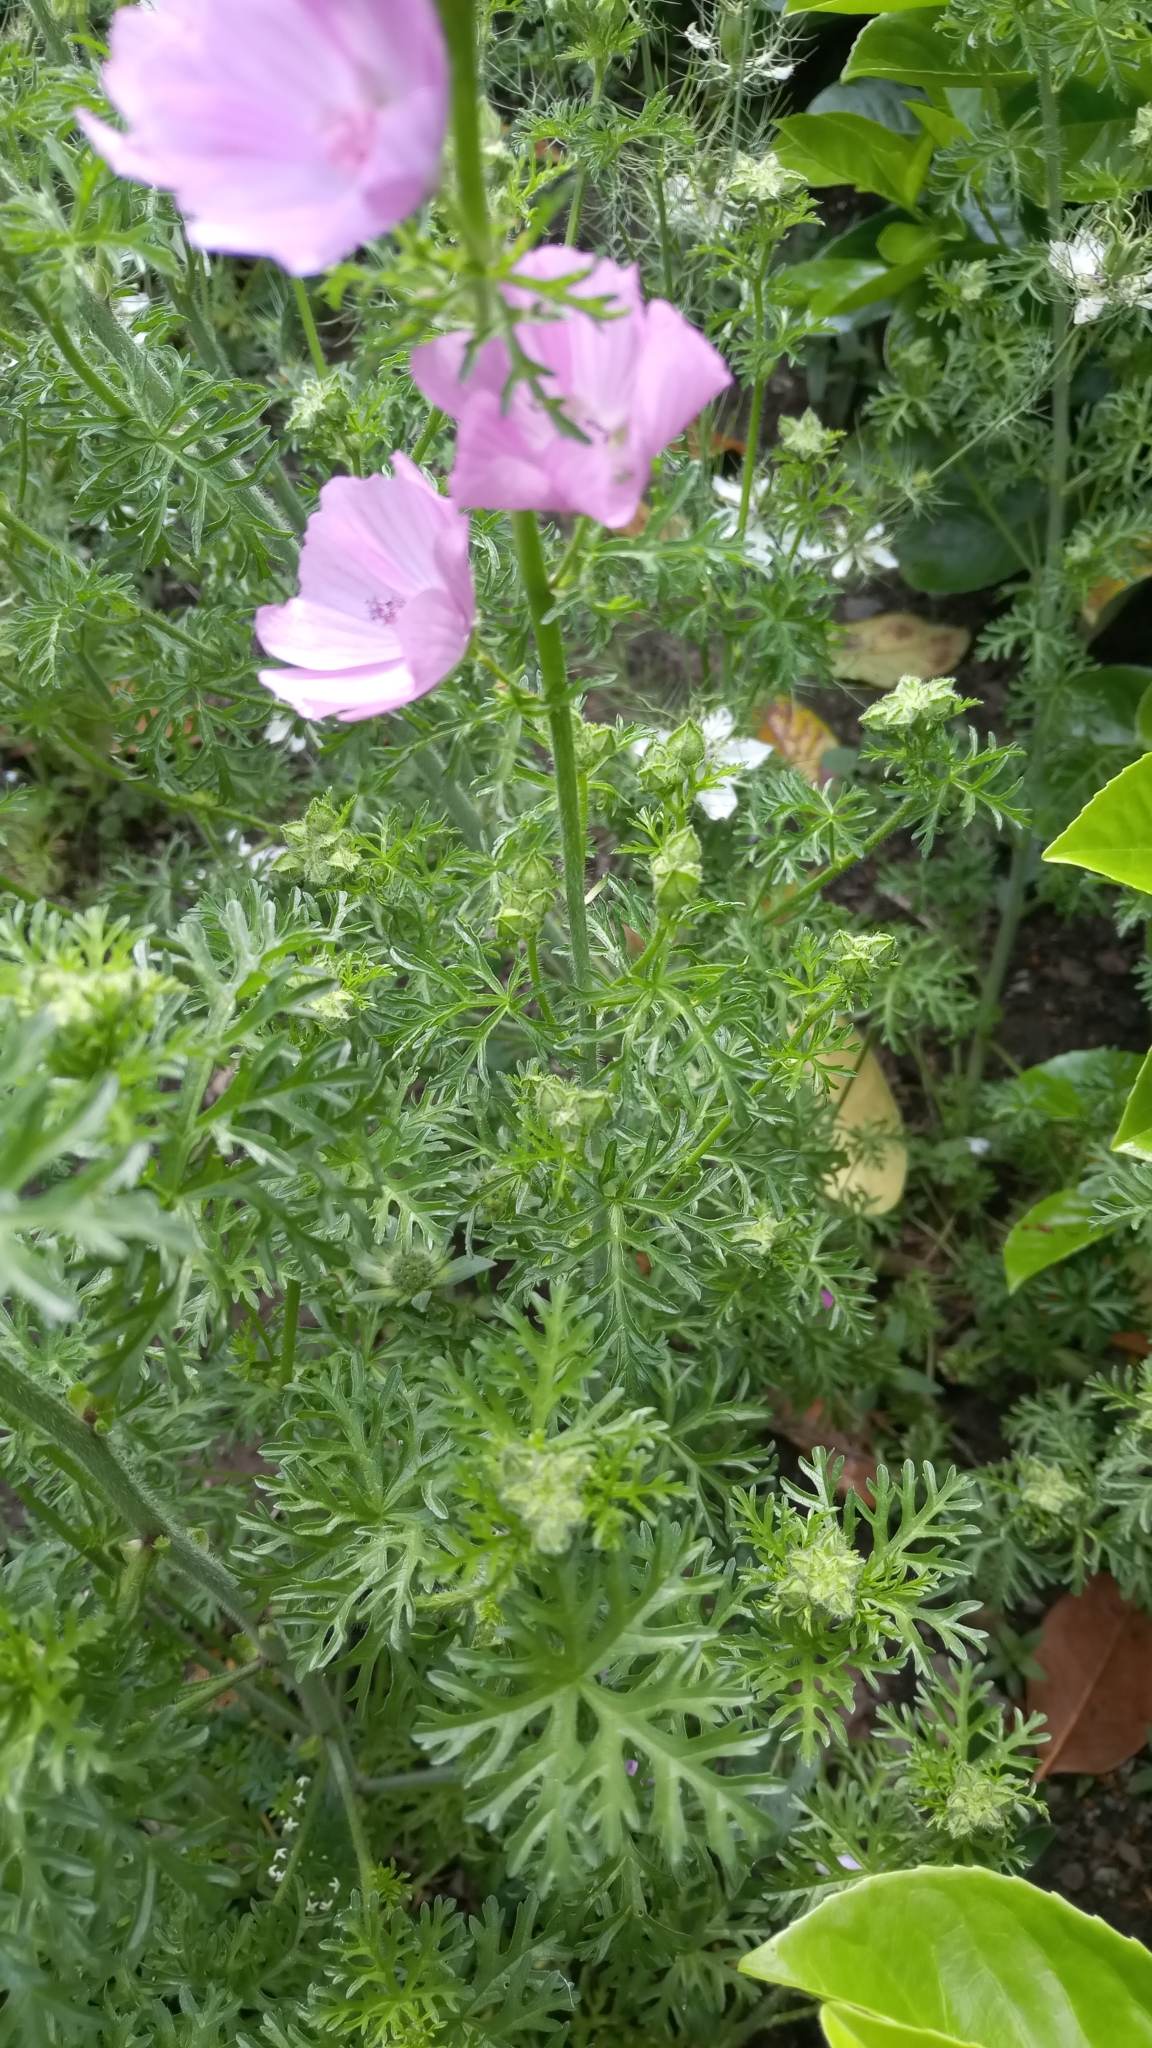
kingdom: Plantae
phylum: Tracheophyta
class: Magnoliopsida
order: Malvales
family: Malvaceae
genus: Malva
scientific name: Malva moschata
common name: Musk mallow
